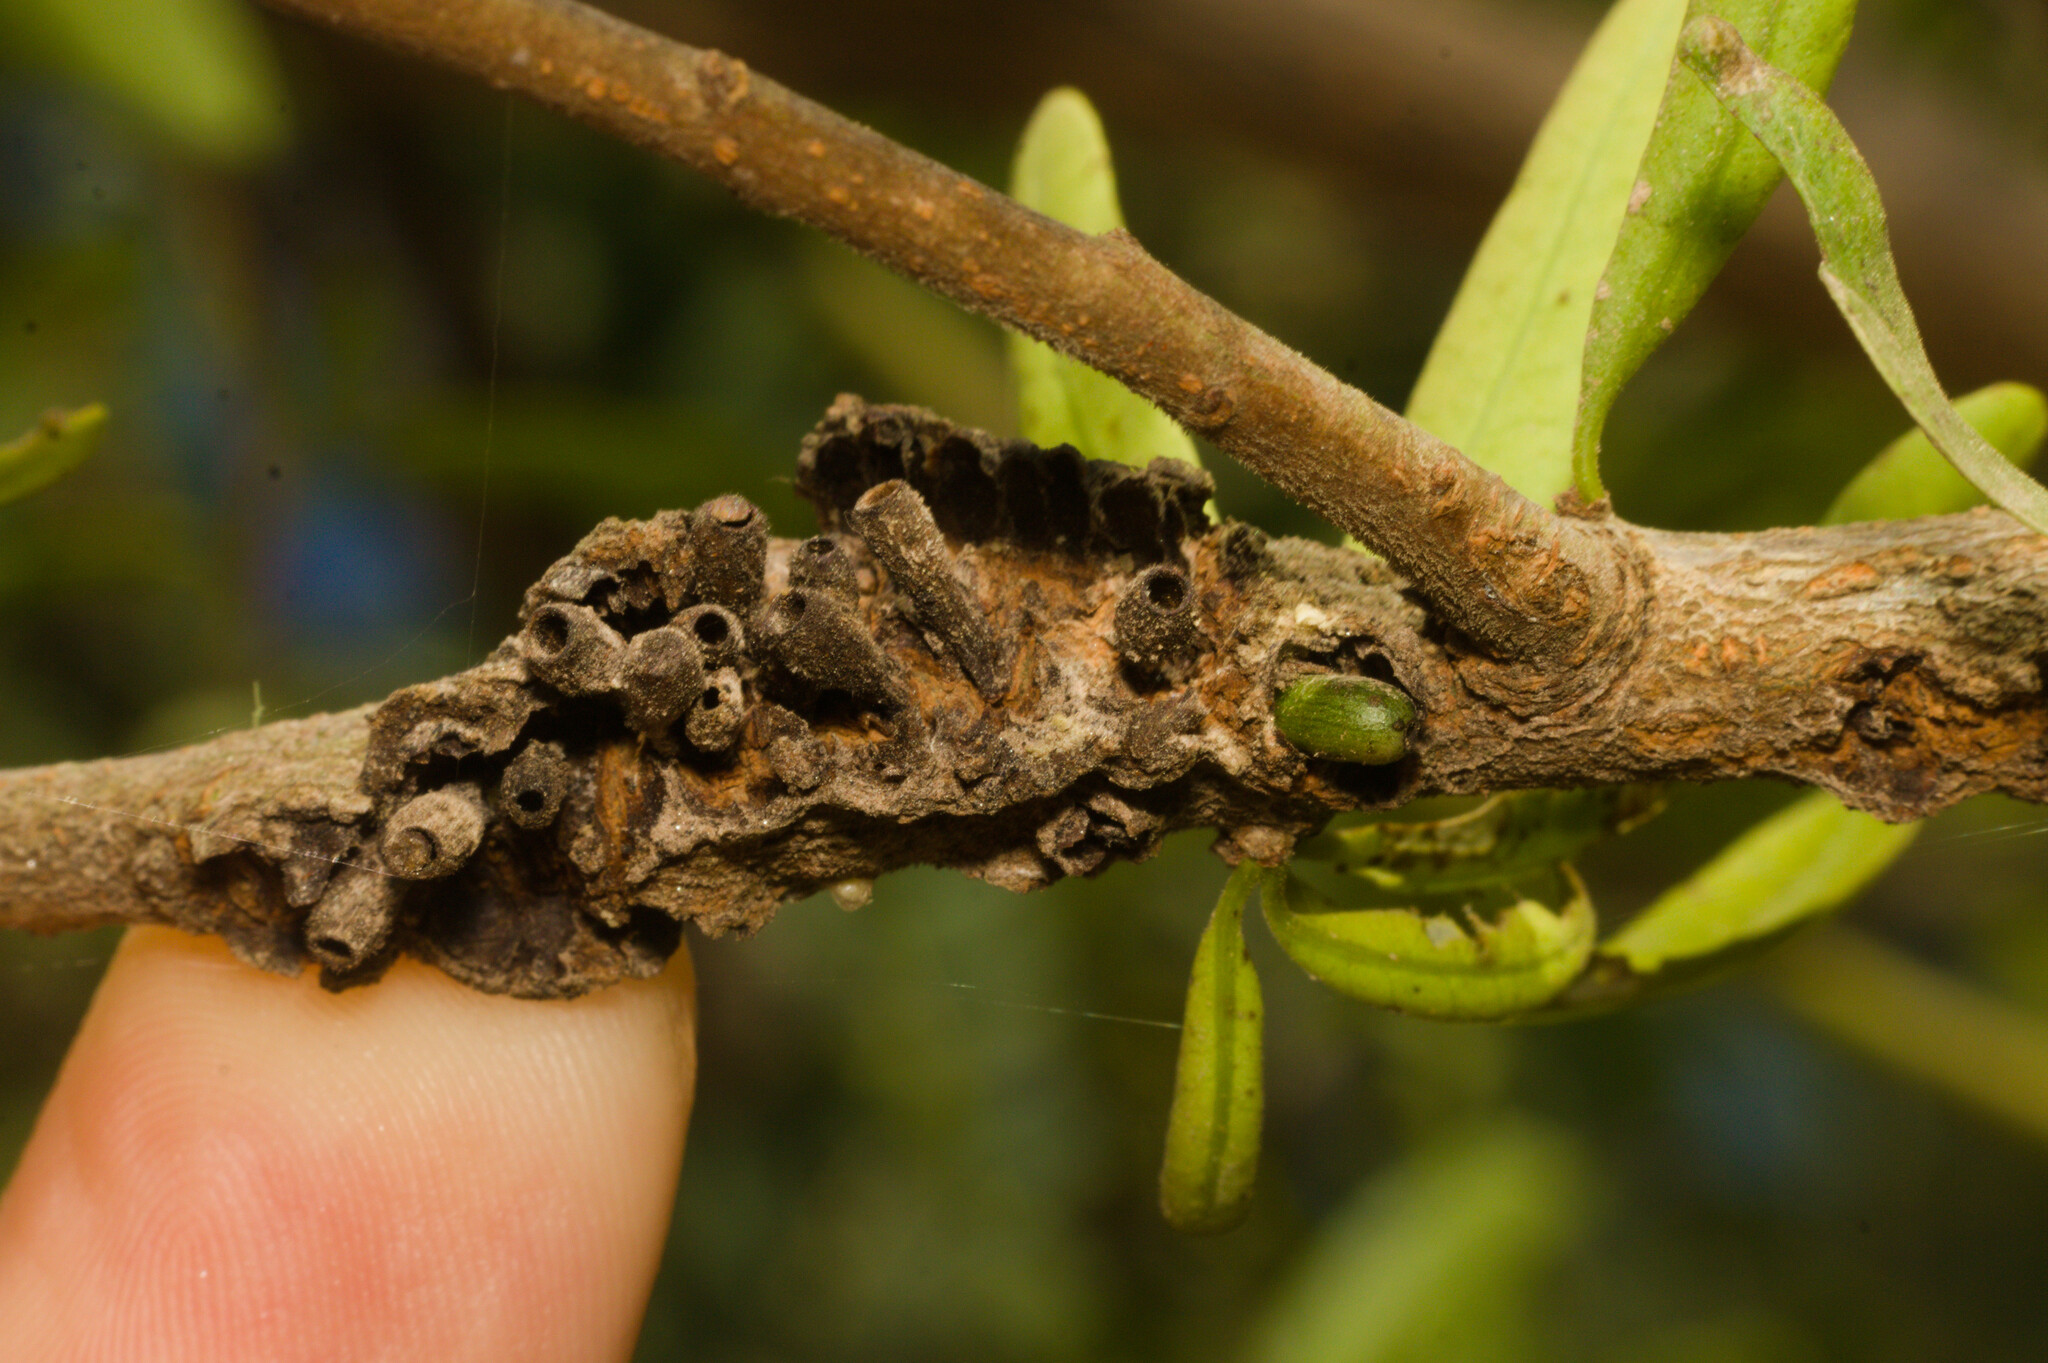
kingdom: Animalia
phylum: Arthropoda
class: Insecta
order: Lepidoptera
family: Cecidosidae
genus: Cecidonius
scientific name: Cecidonius pampeanus
